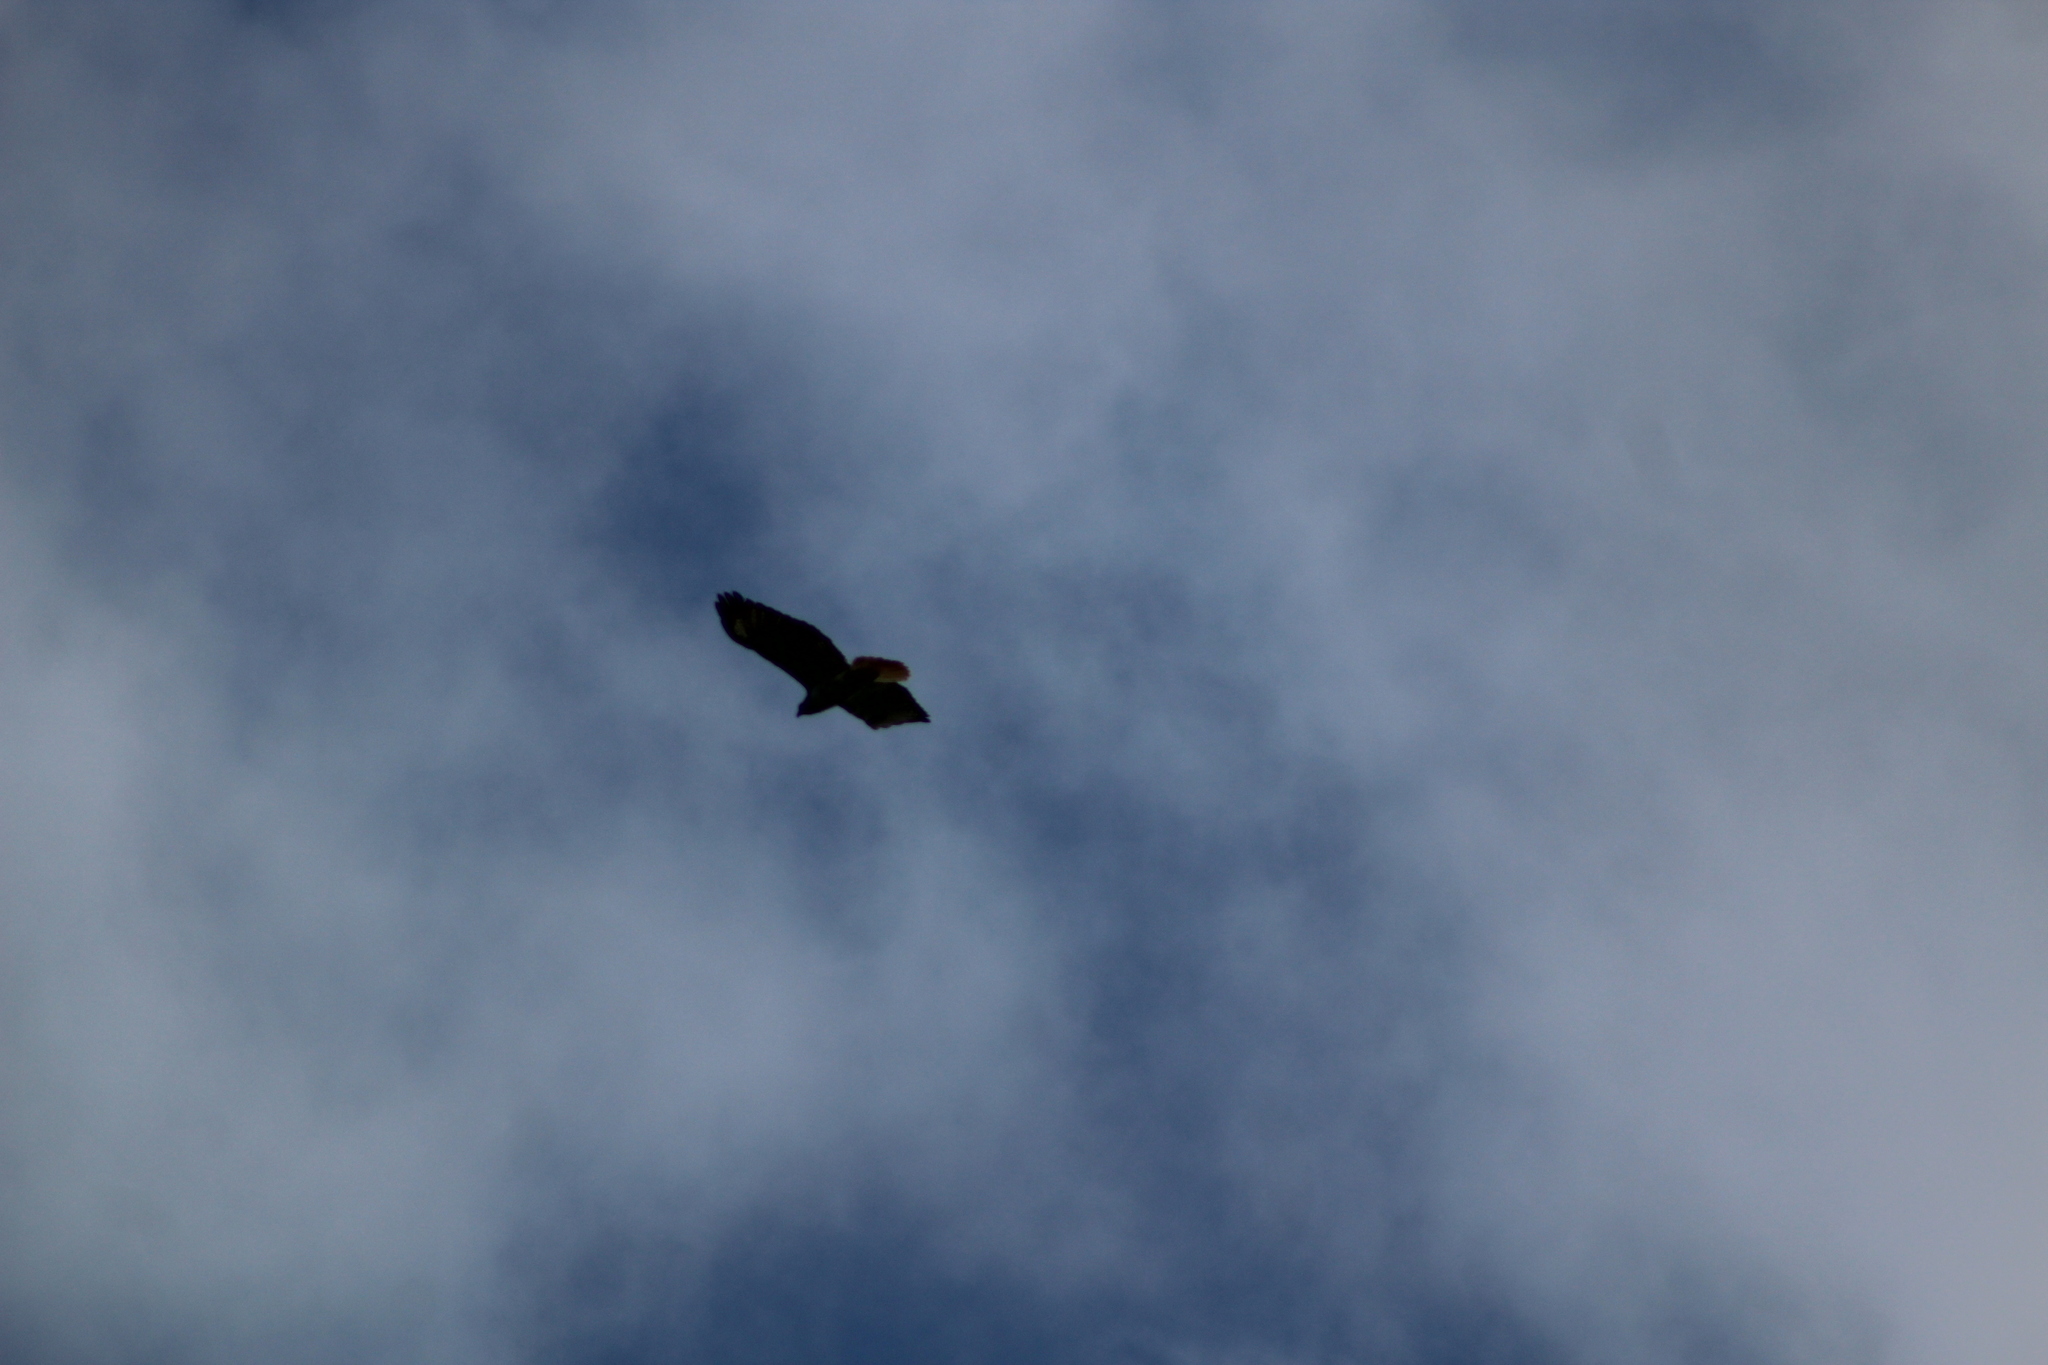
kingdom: Animalia
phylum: Chordata
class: Aves
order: Accipitriformes
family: Accipitridae
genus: Buteo
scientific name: Buteo jamaicensis
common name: Red-tailed hawk
